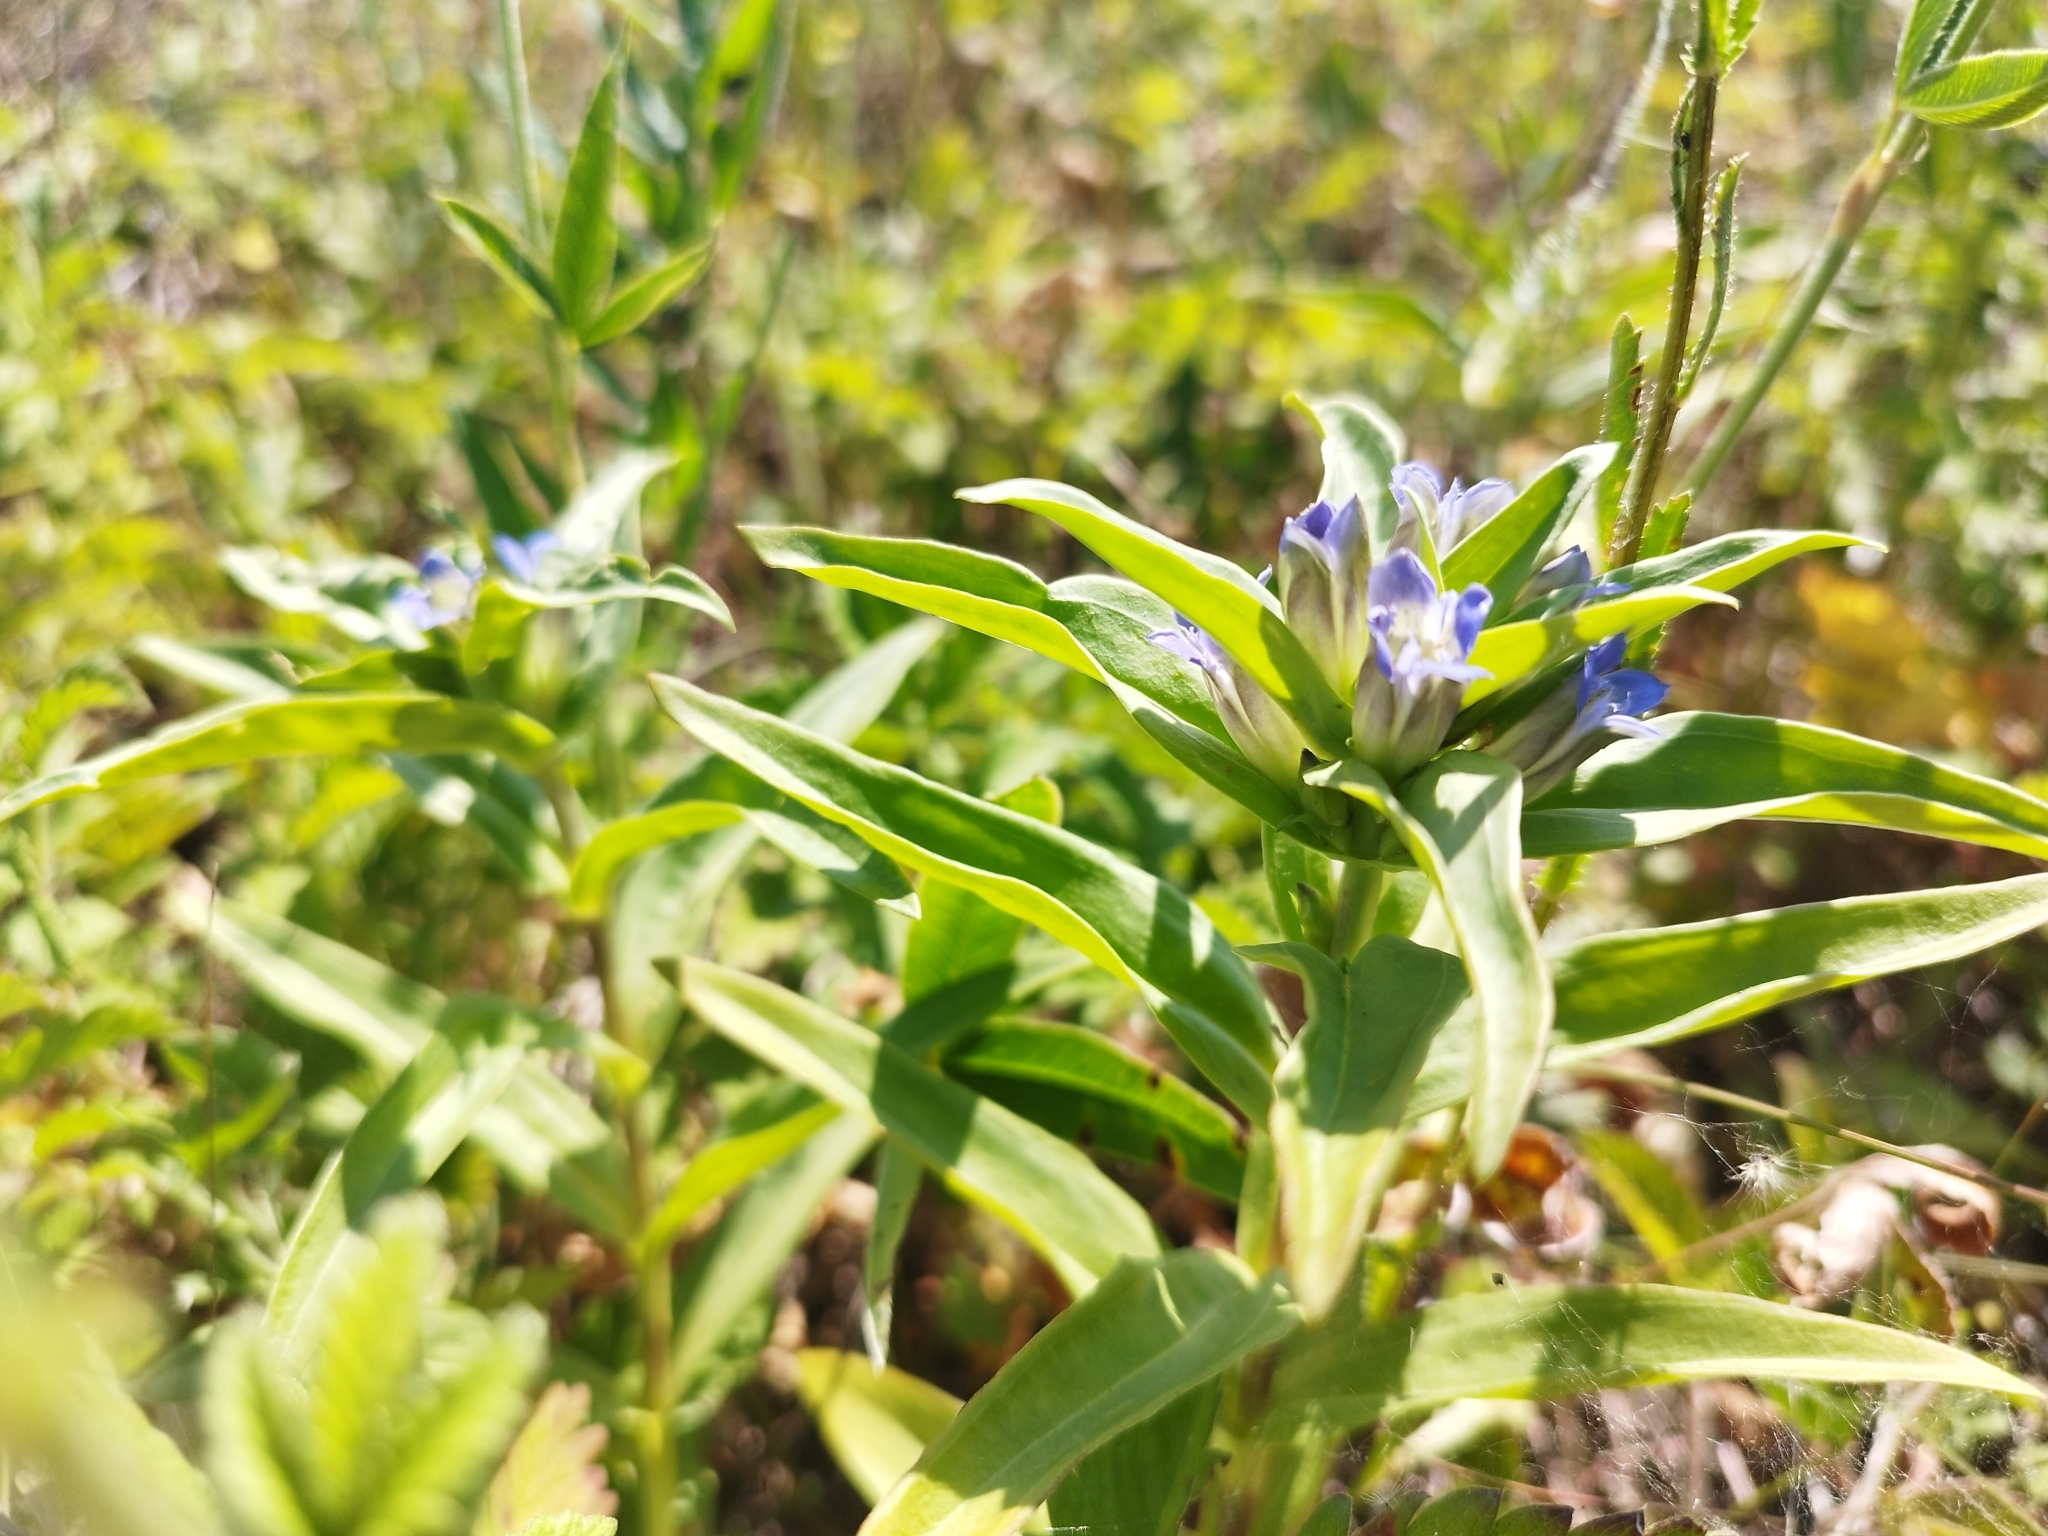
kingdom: Plantae
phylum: Tracheophyta
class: Magnoliopsida
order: Gentianales
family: Gentianaceae
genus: Gentiana
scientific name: Gentiana cruciata
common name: Cross gentian
